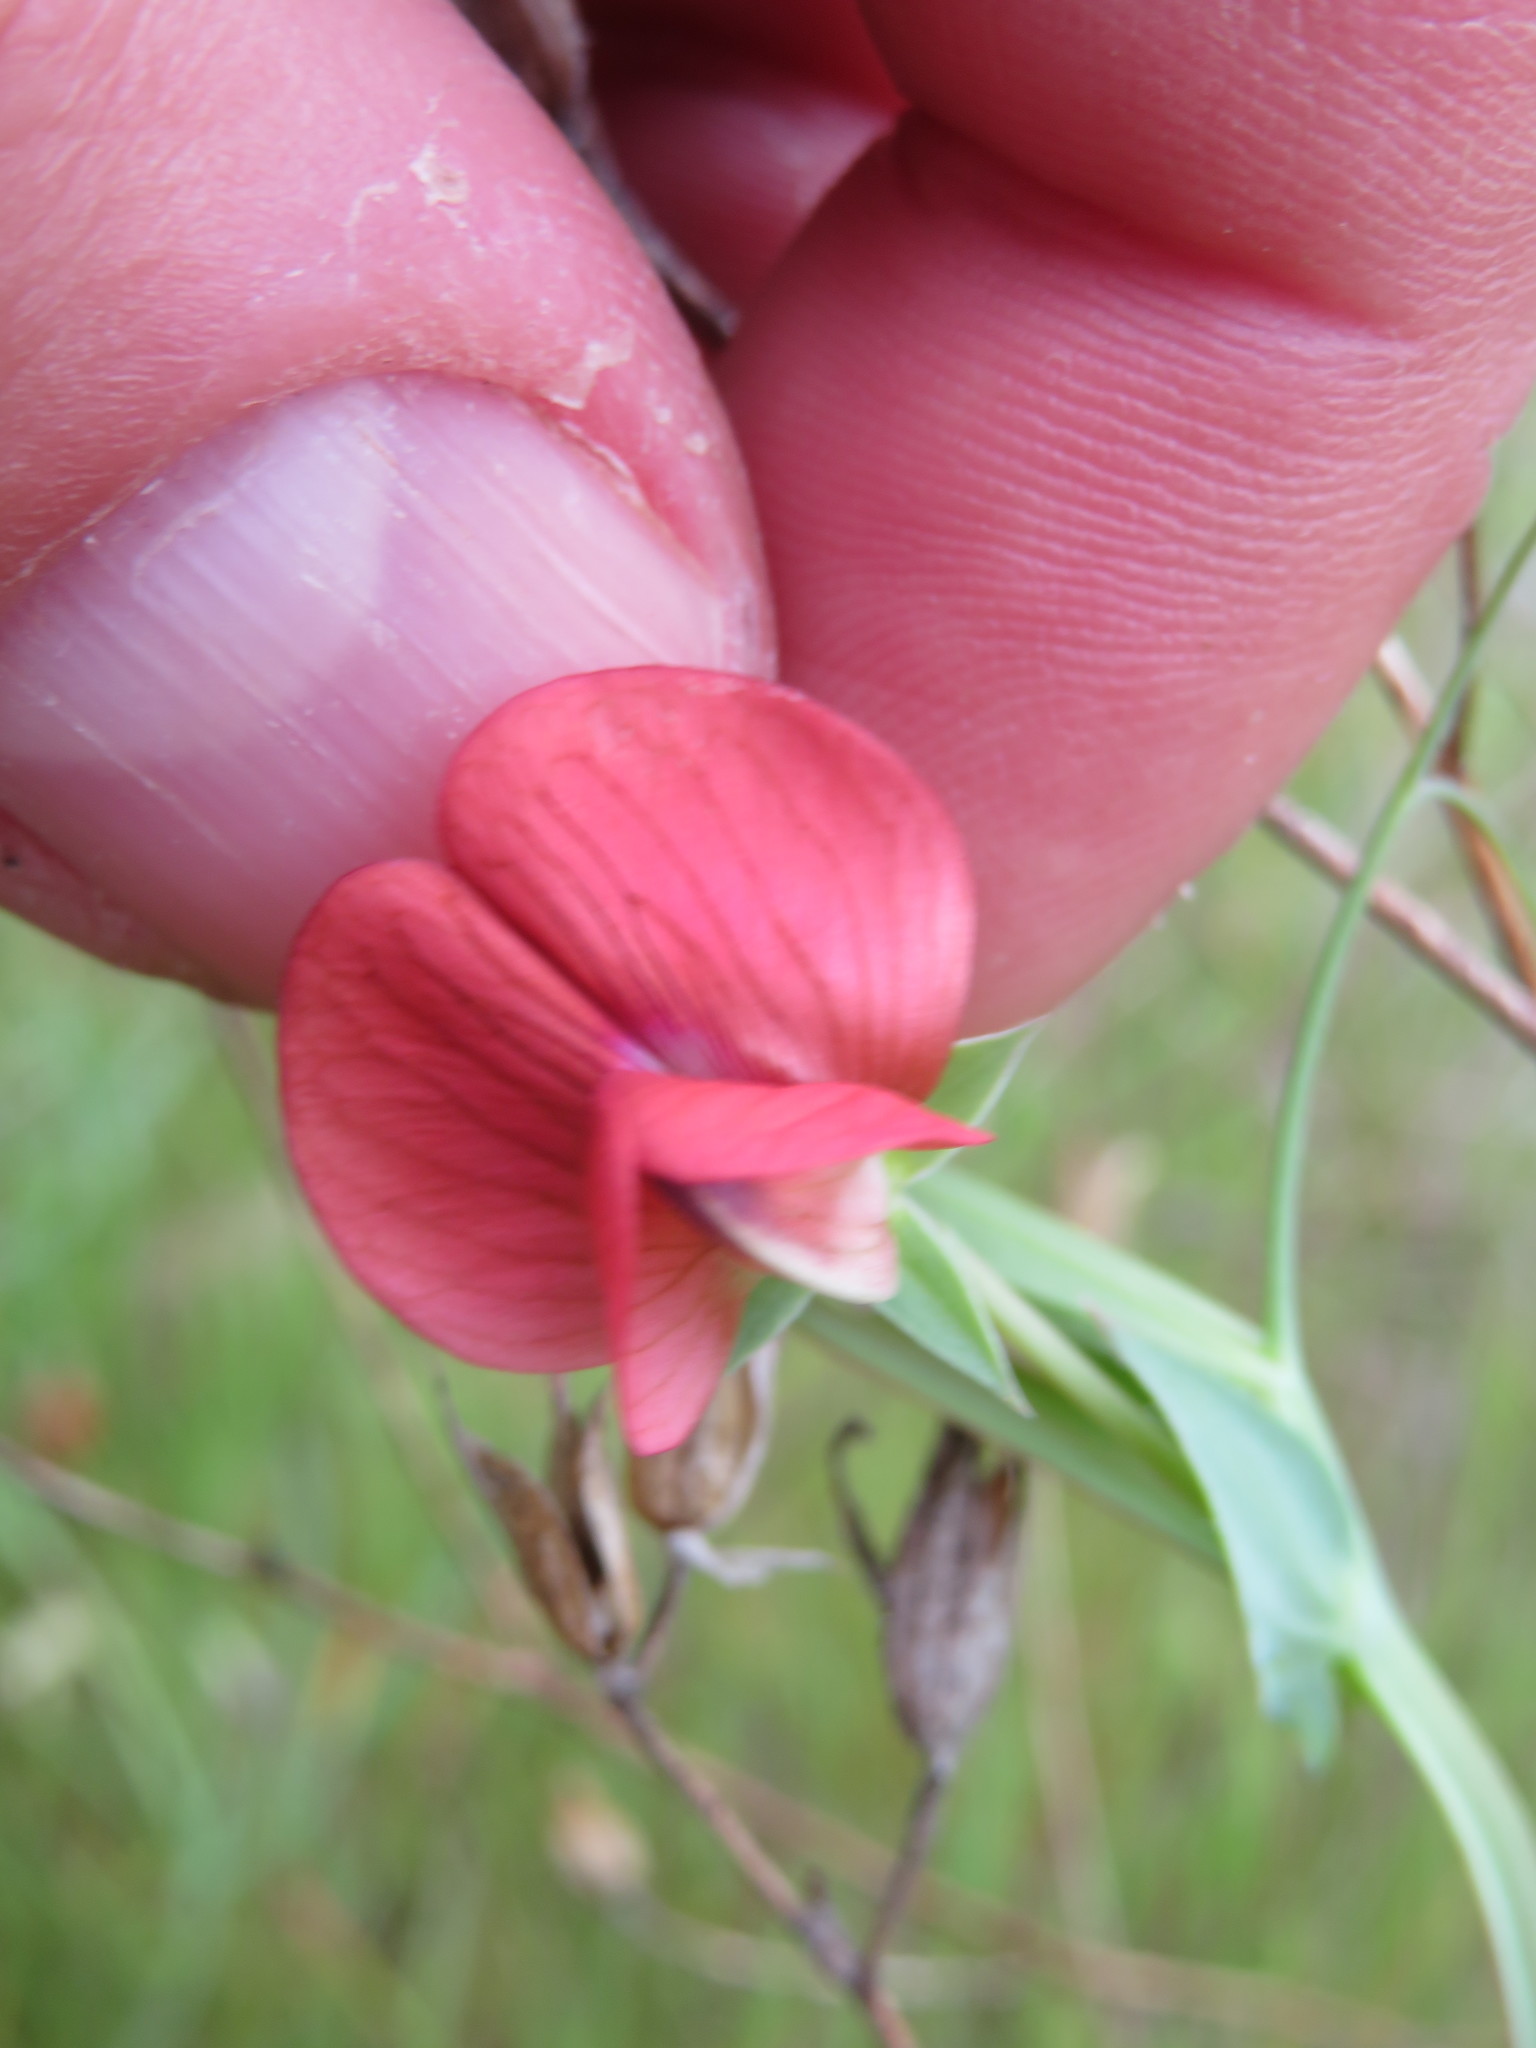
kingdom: Plantae
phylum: Tracheophyta
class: Magnoliopsida
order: Fabales
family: Fabaceae
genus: Lathyrus
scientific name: Lathyrus cicera
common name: Red vetchling
